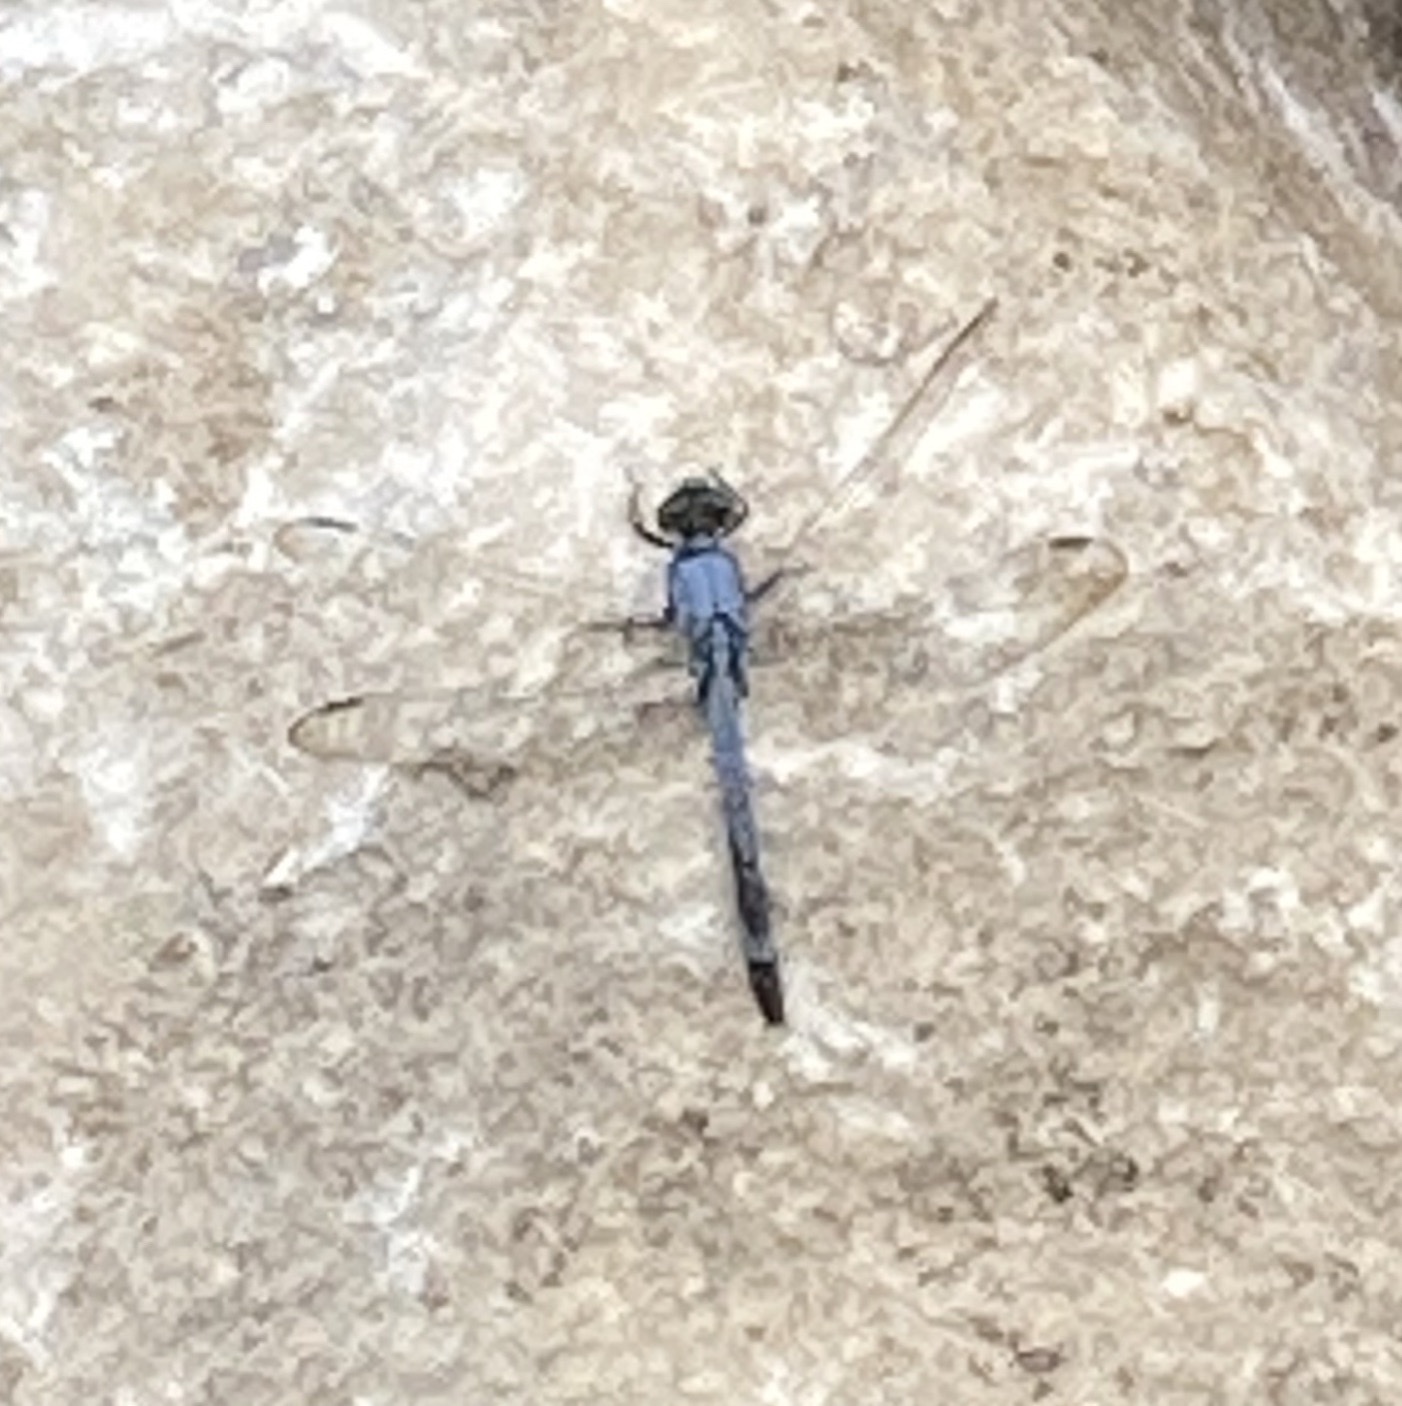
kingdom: Animalia
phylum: Arthropoda
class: Insecta
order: Odonata
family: Libellulidae
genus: Erythemis
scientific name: Erythemis simplicicollis
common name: Eastern pondhawk
